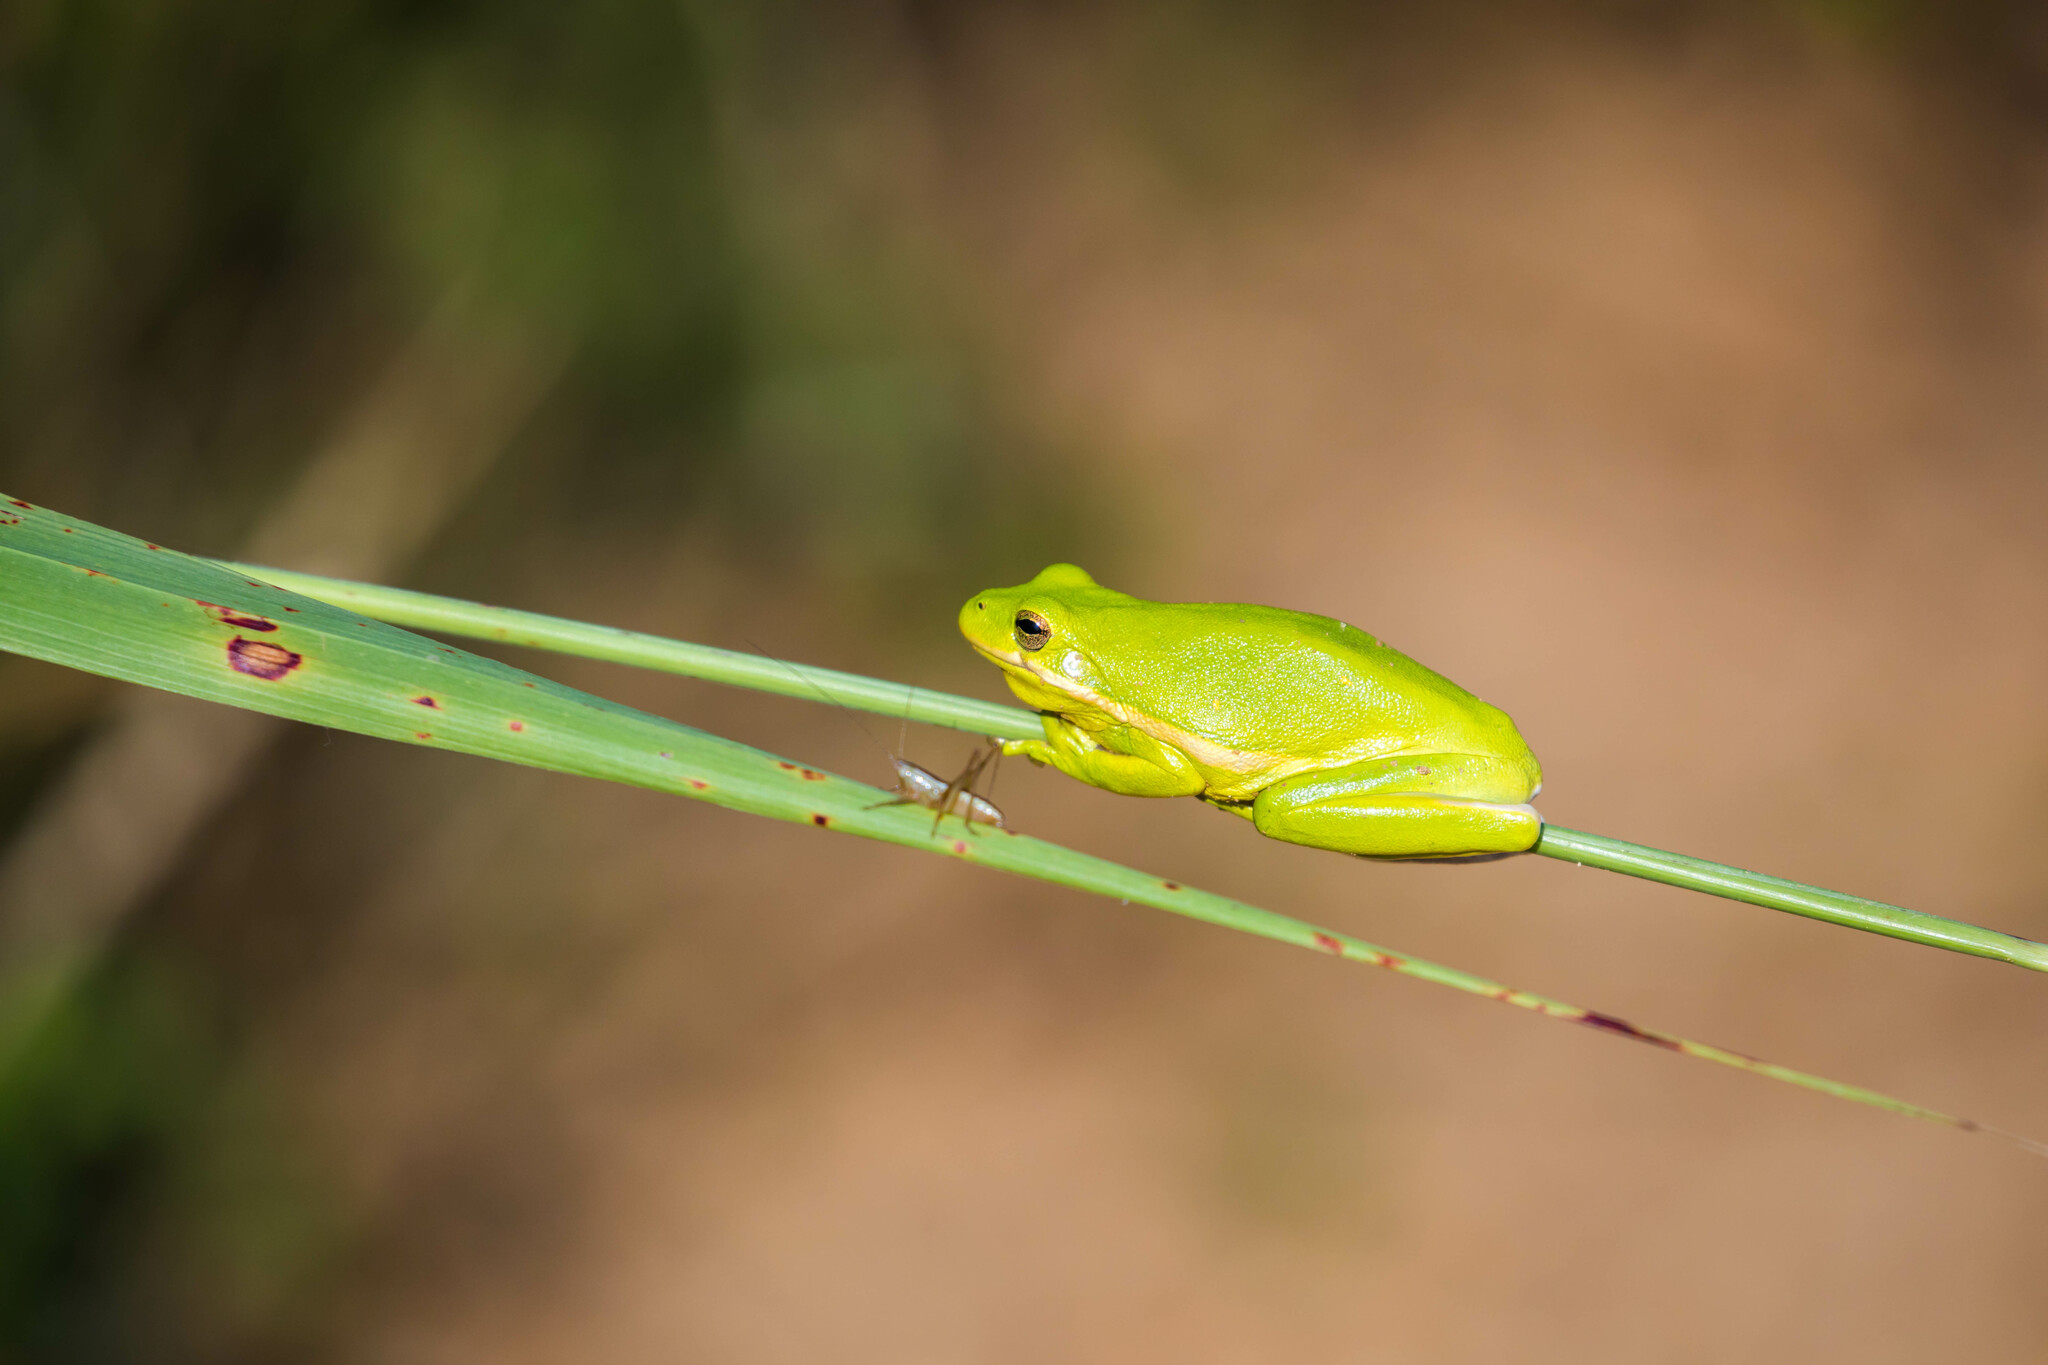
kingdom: Animalia
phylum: Chordata
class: Amphibia
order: Anura
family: Hylidae
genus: Dryophytes
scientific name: Dryophytes cinereus
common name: Green treefrog
